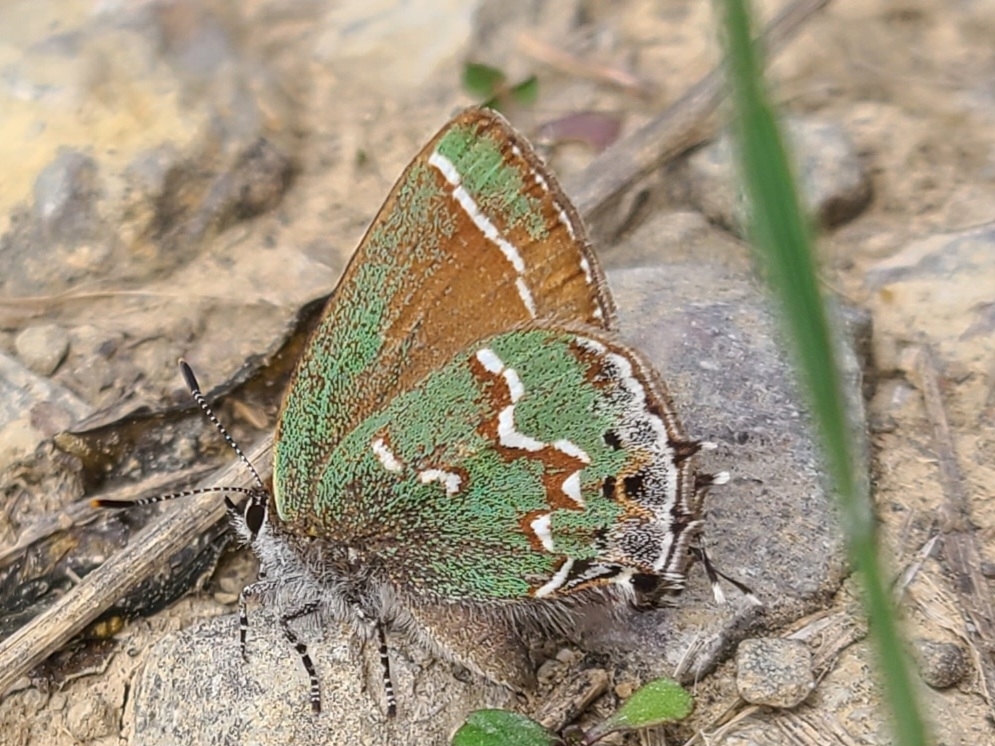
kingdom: Animalia
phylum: Arthropoda
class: Insecta
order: Lepidoptera
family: Lycaenidae
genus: Mitoura
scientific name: Mitoura gryneus
